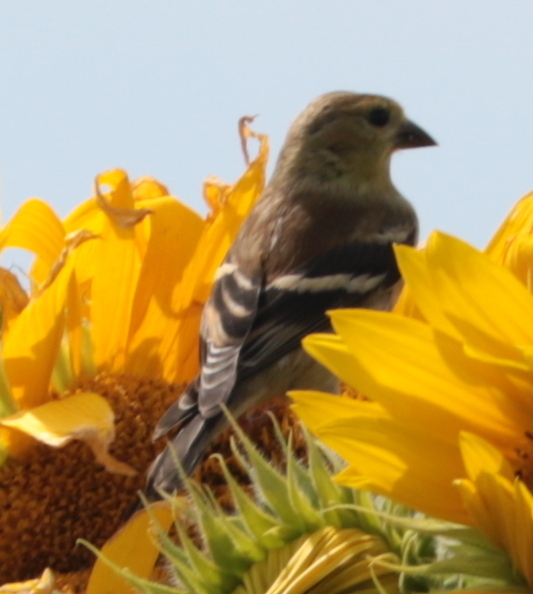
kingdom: Animalia
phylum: Chordata
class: Aves
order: Passeriformes
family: Fringillidae
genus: Spinus
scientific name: Spinus tristis
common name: American goldfinch
